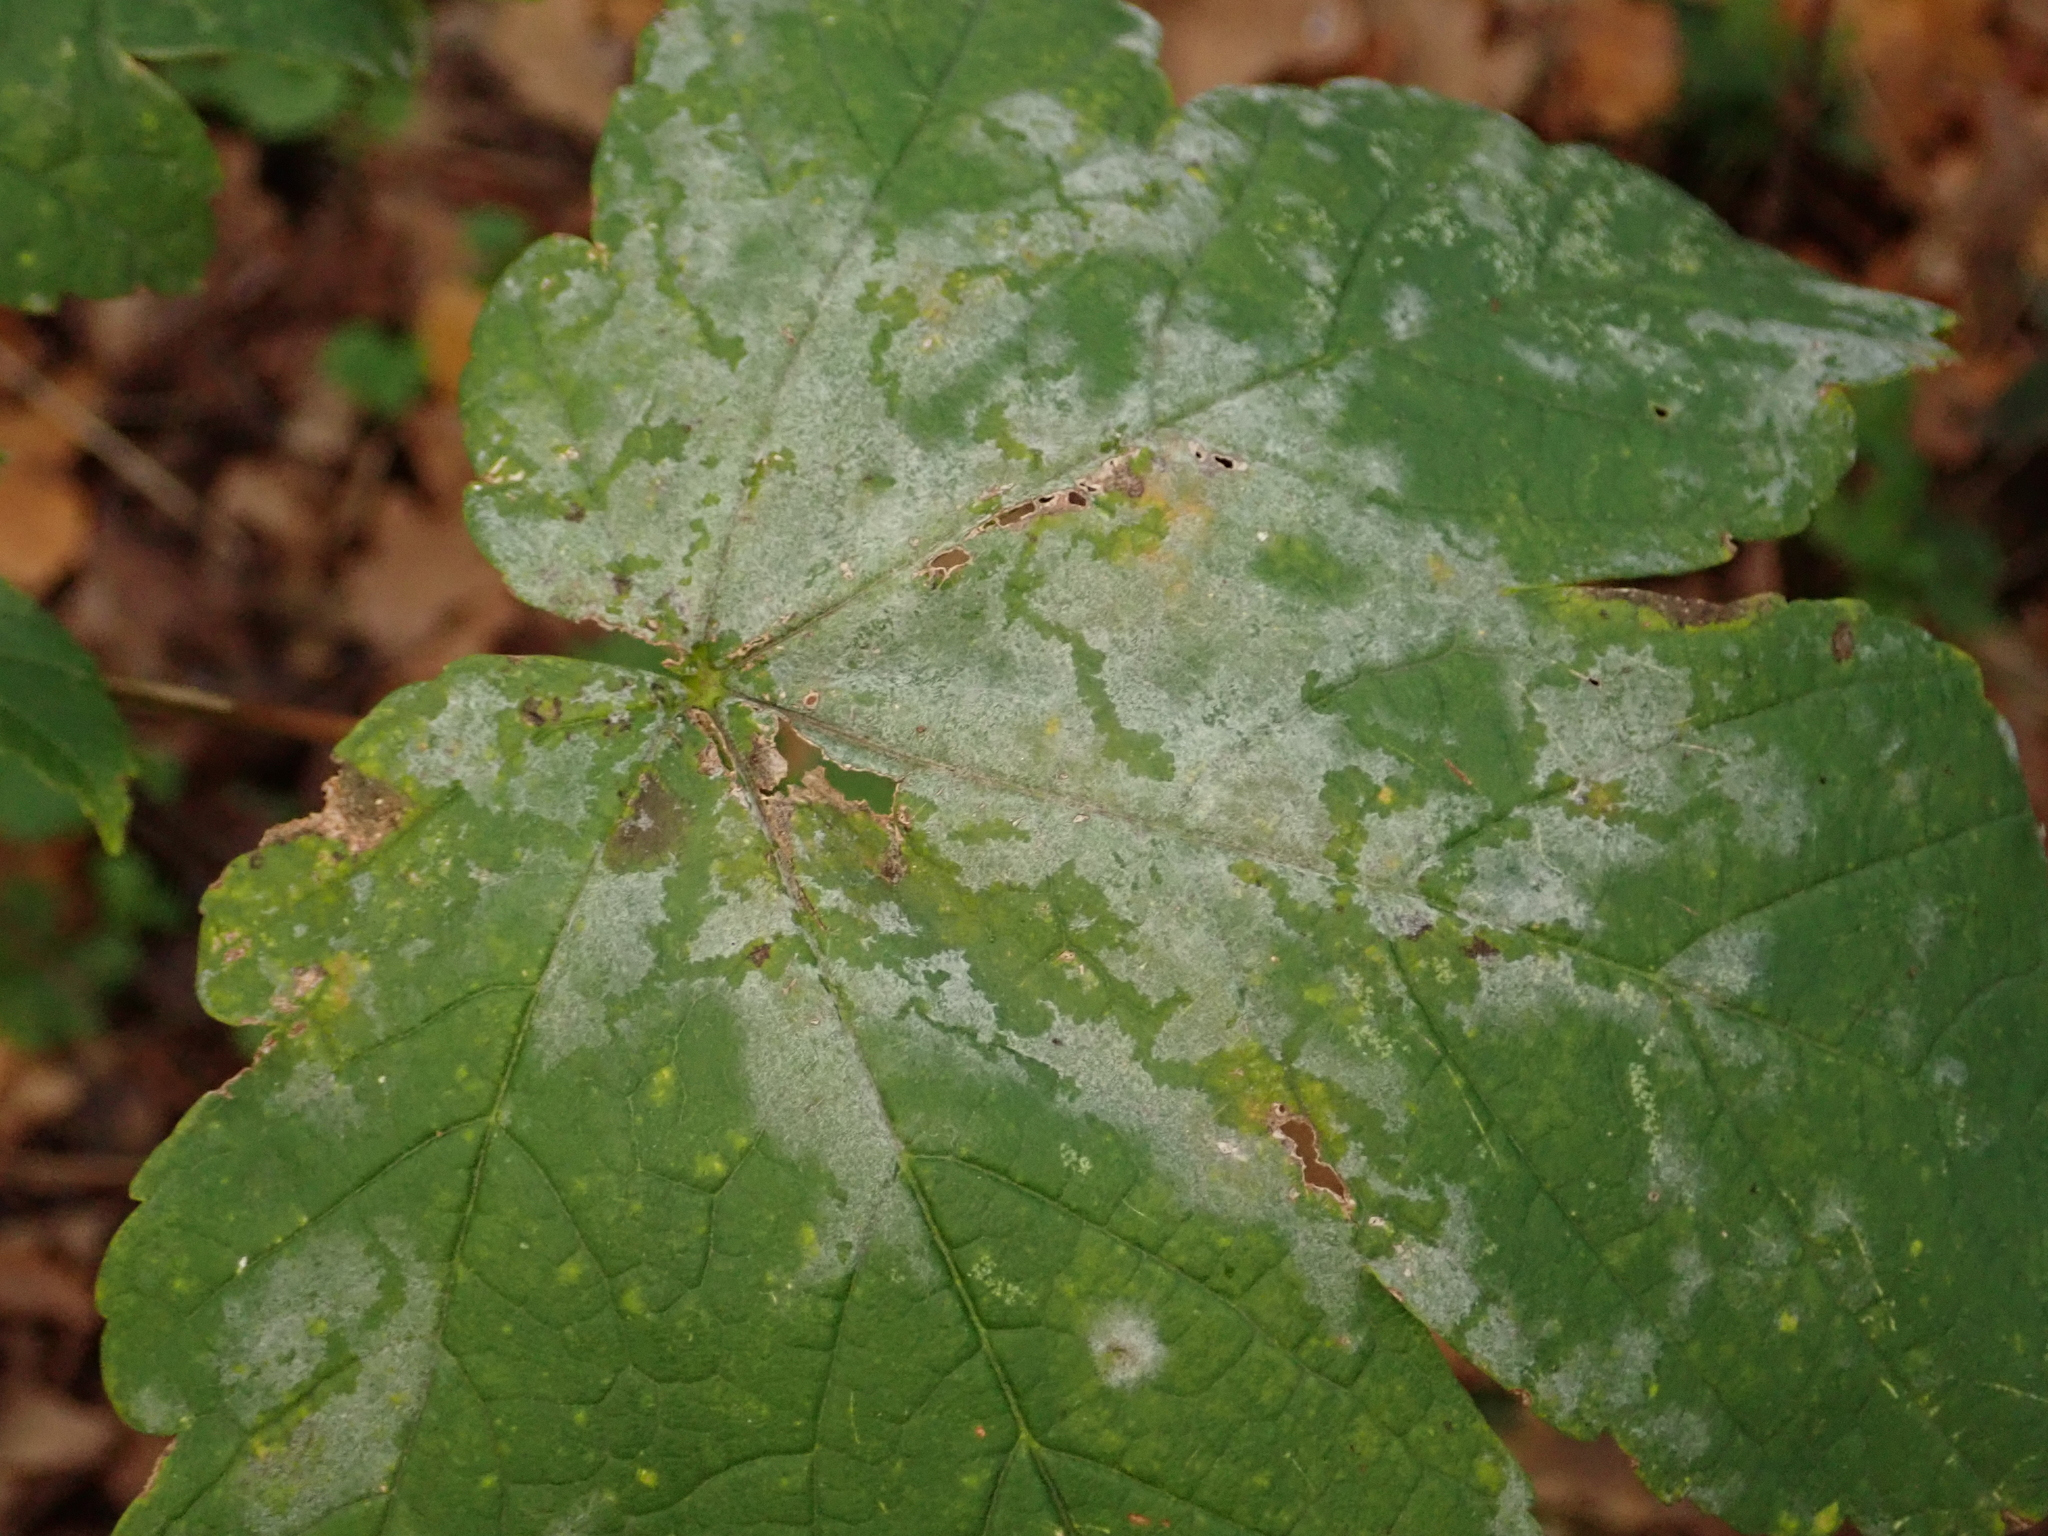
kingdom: Fungi
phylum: Ascomycota
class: Leotiomycetes
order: Helotiales
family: Erysiphaceae
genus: Sawadaea
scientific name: Sawadaea bicornis
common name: Maple mildew
